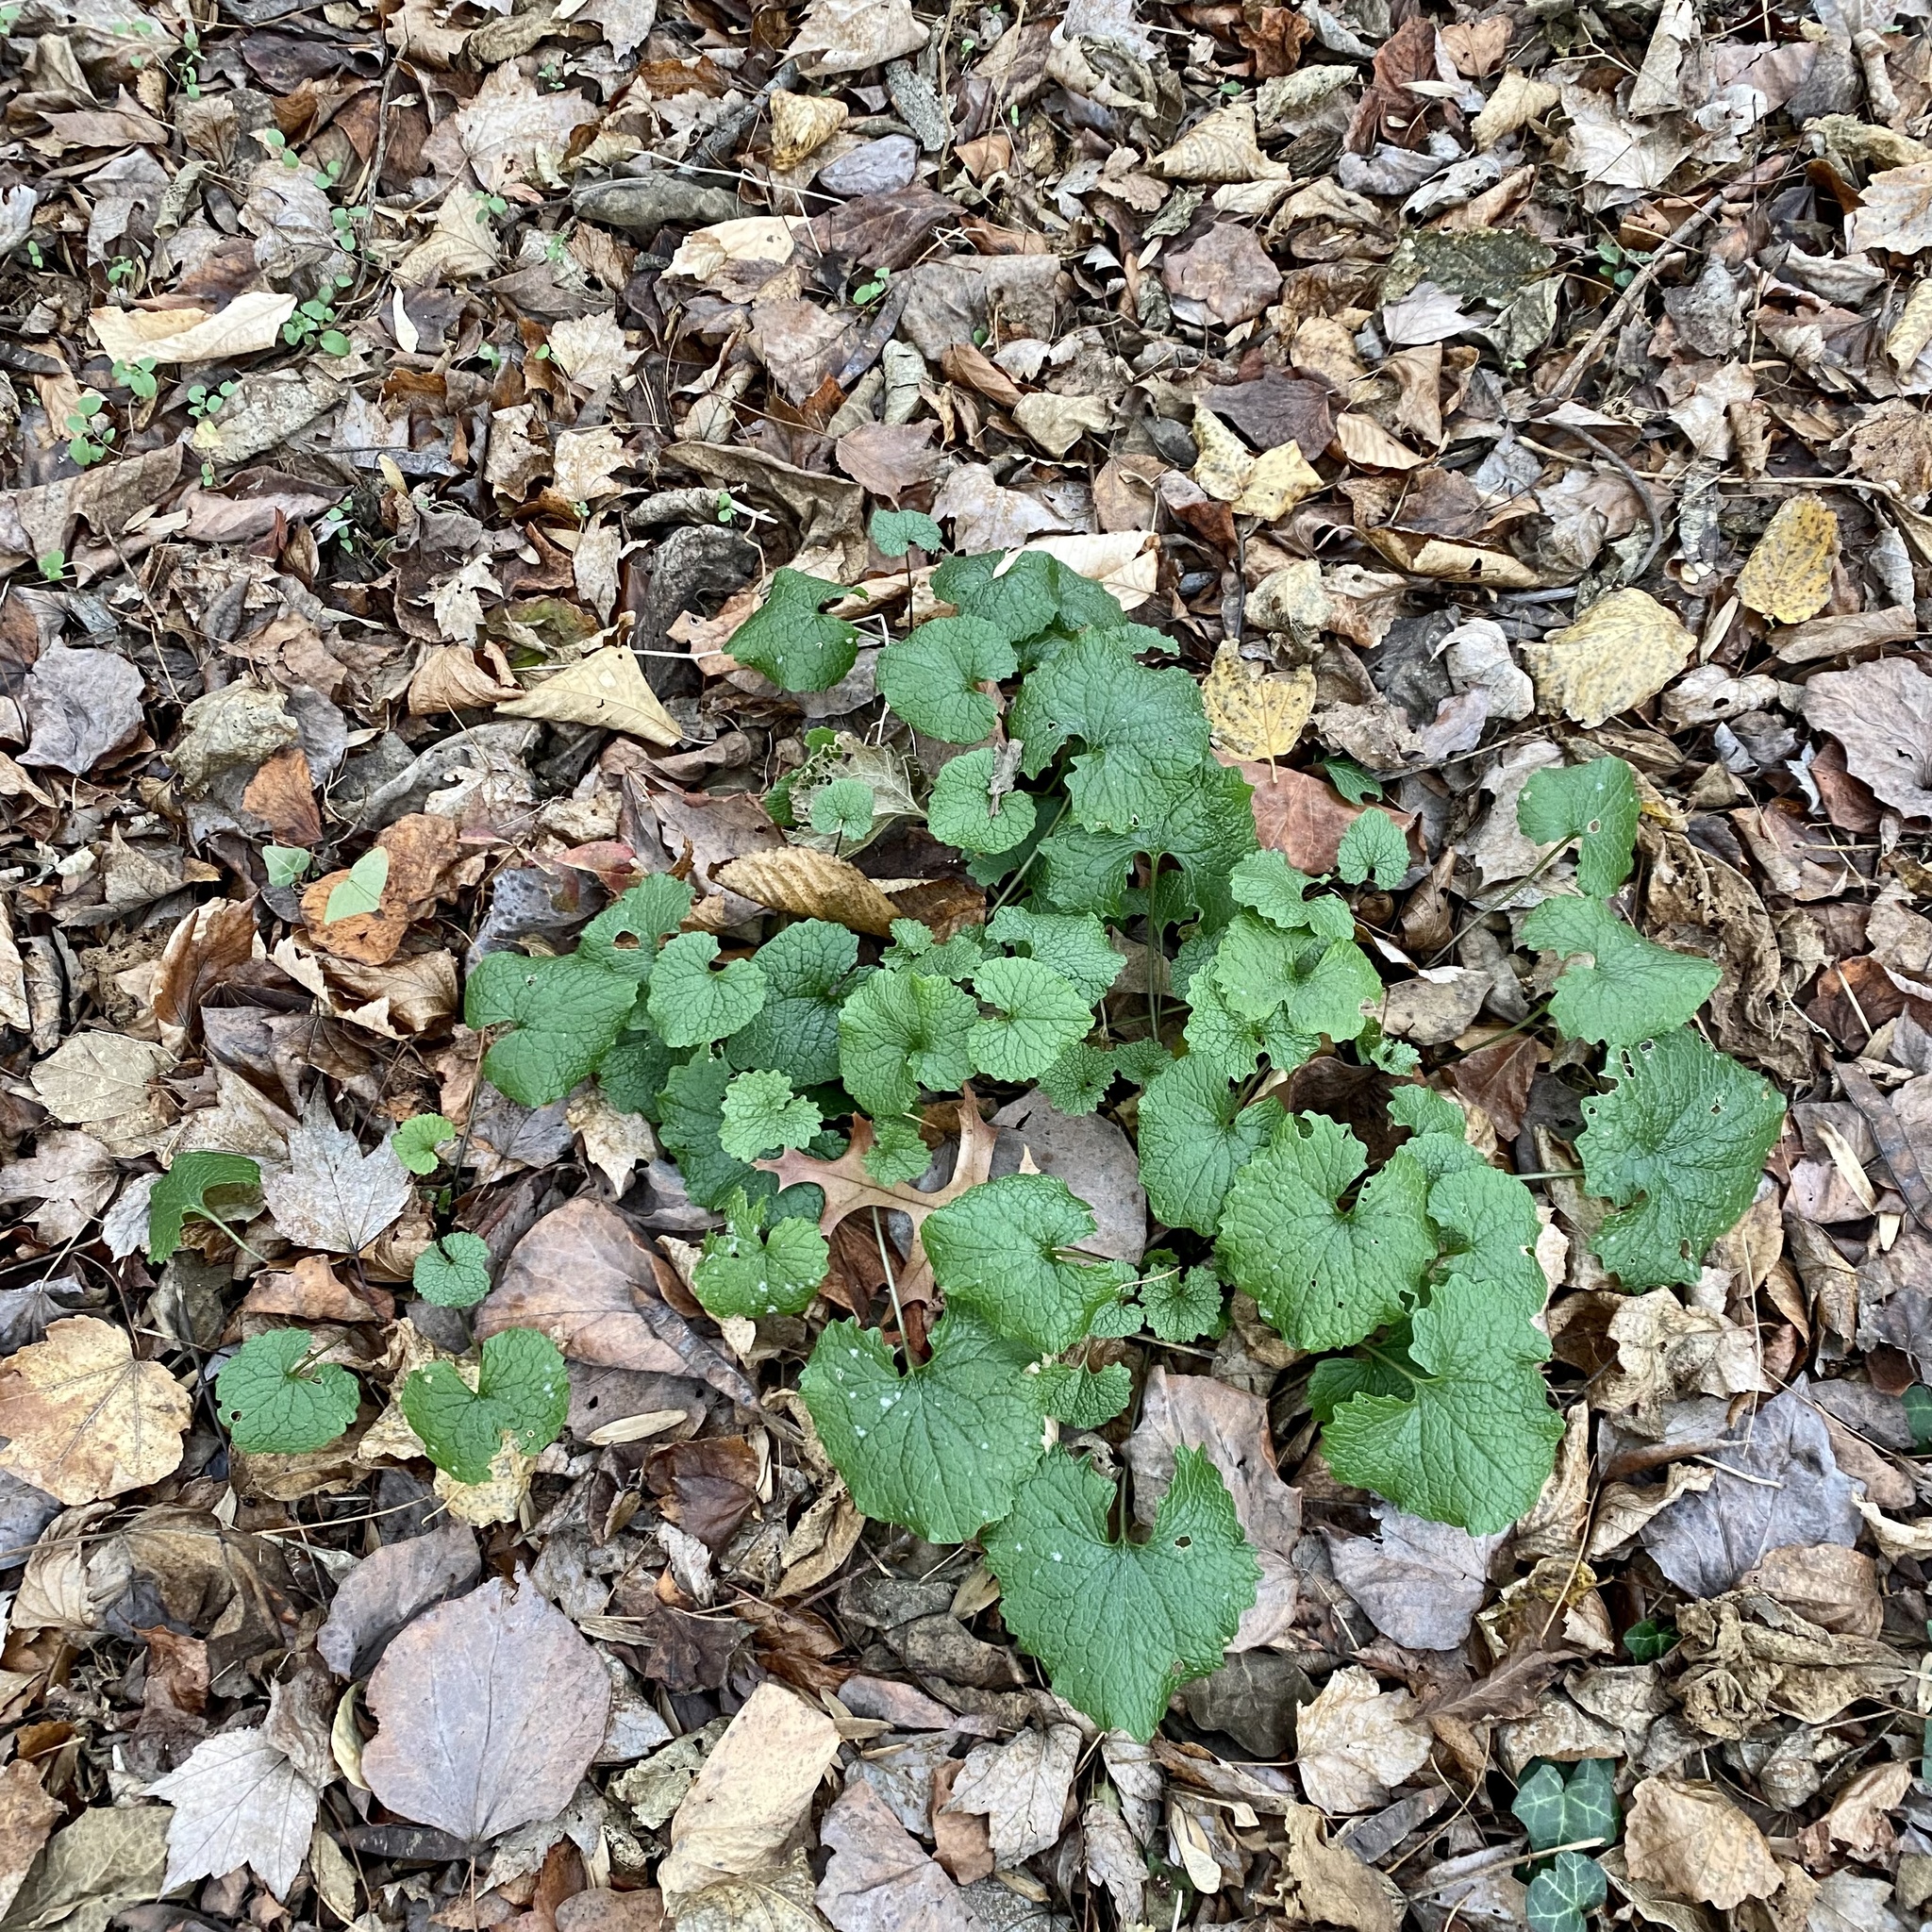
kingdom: Plantae
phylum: Tracheophyta
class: Magnoliopsida
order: Brassicales
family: Brassicaceae
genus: Alliaria
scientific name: Alliaria petiolata
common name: Garlic mustard
